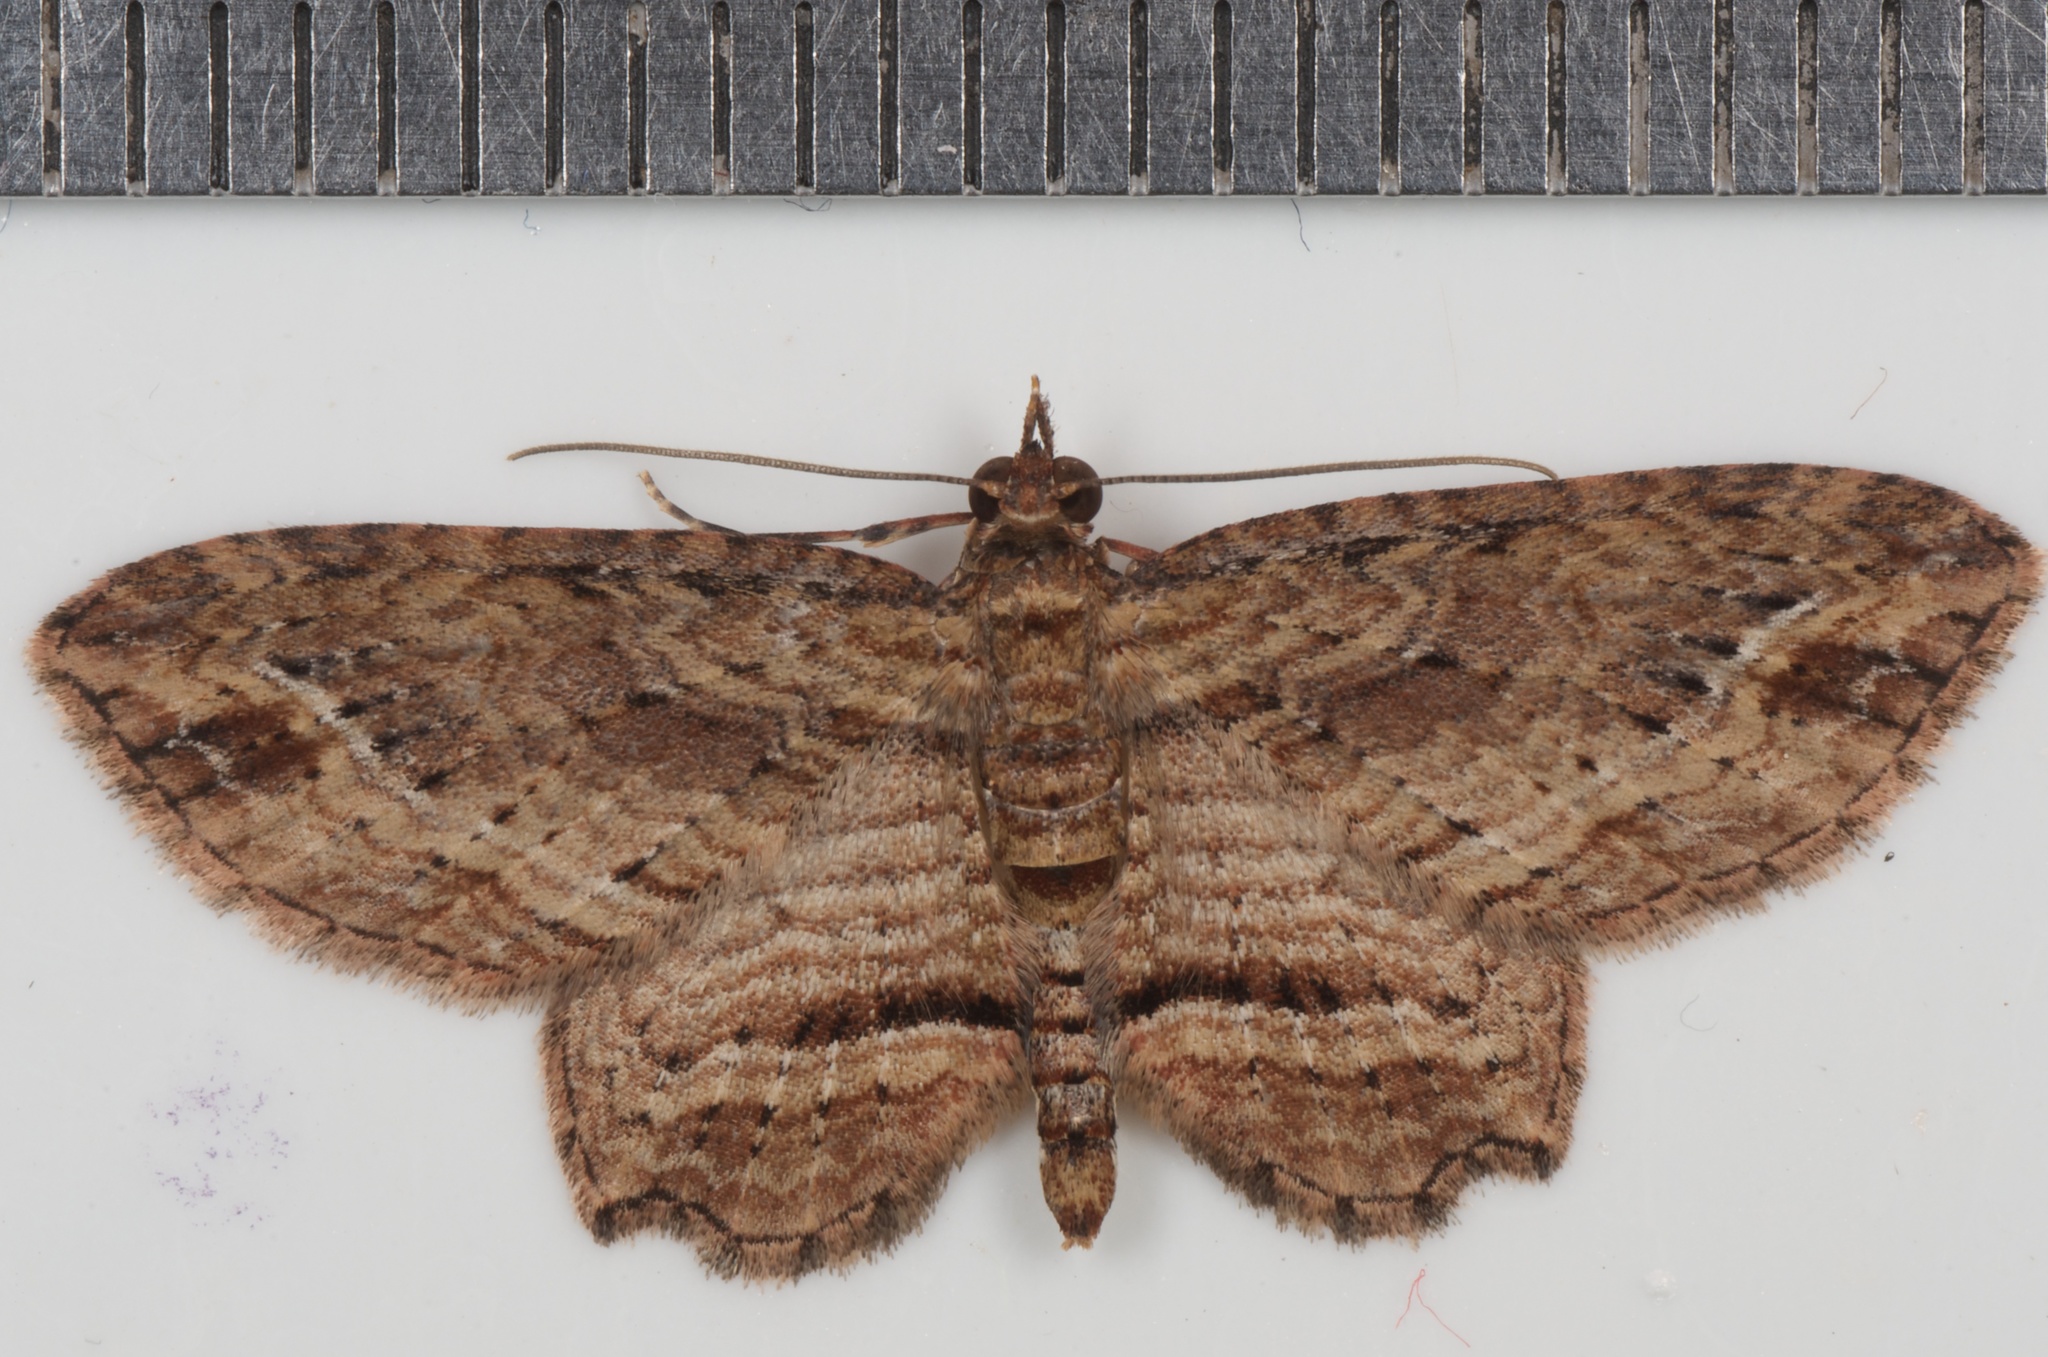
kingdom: Animalia
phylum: Arthropoda
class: Insecta
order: Lepidoptera
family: Geometridae
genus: Chloroclystis
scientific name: Chloroclystis filata
